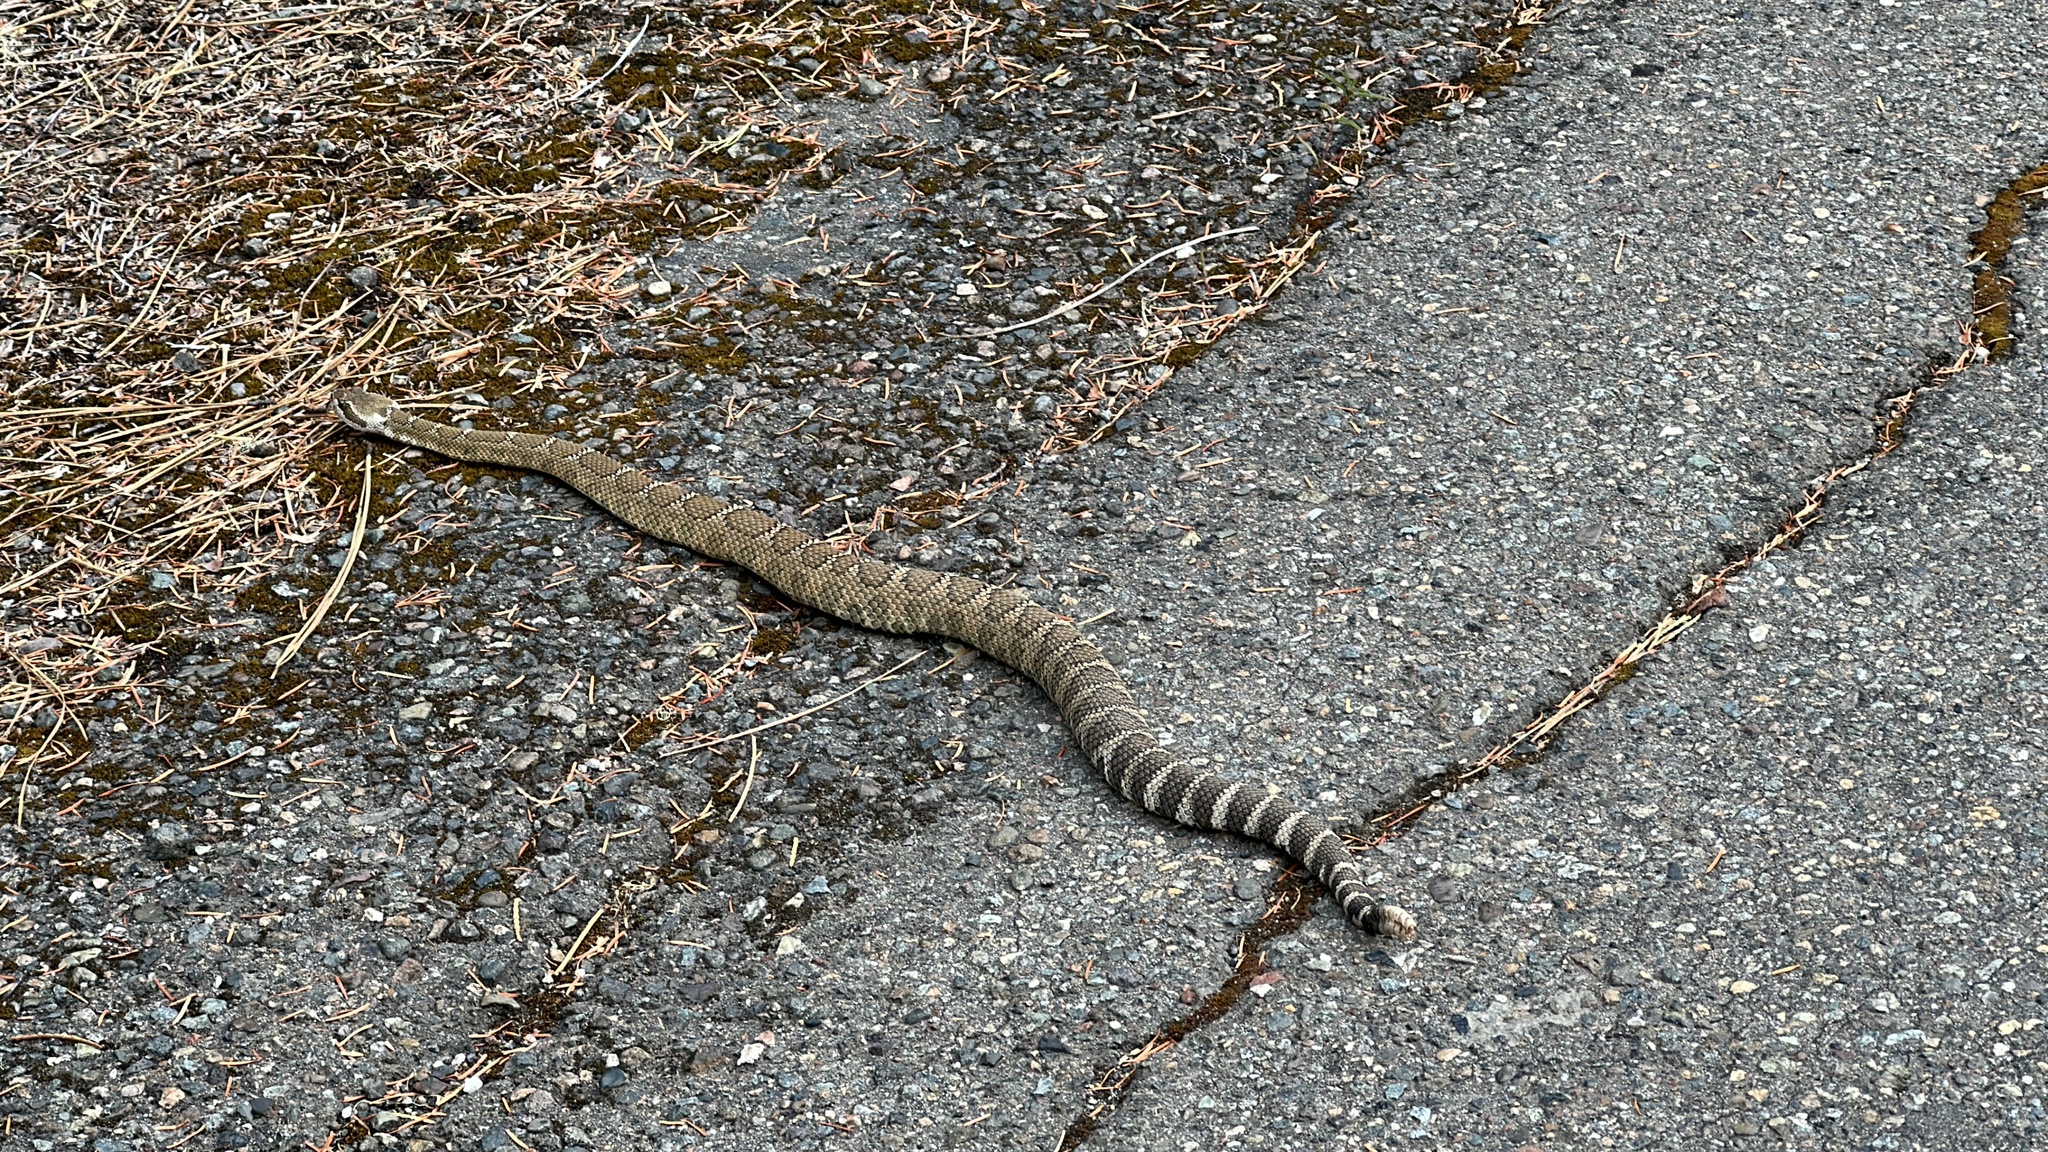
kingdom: Animalia
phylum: Chordata
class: Squamata
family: Viperidae
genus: Crotalus
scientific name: Crotalus oreganus
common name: Abyssus
